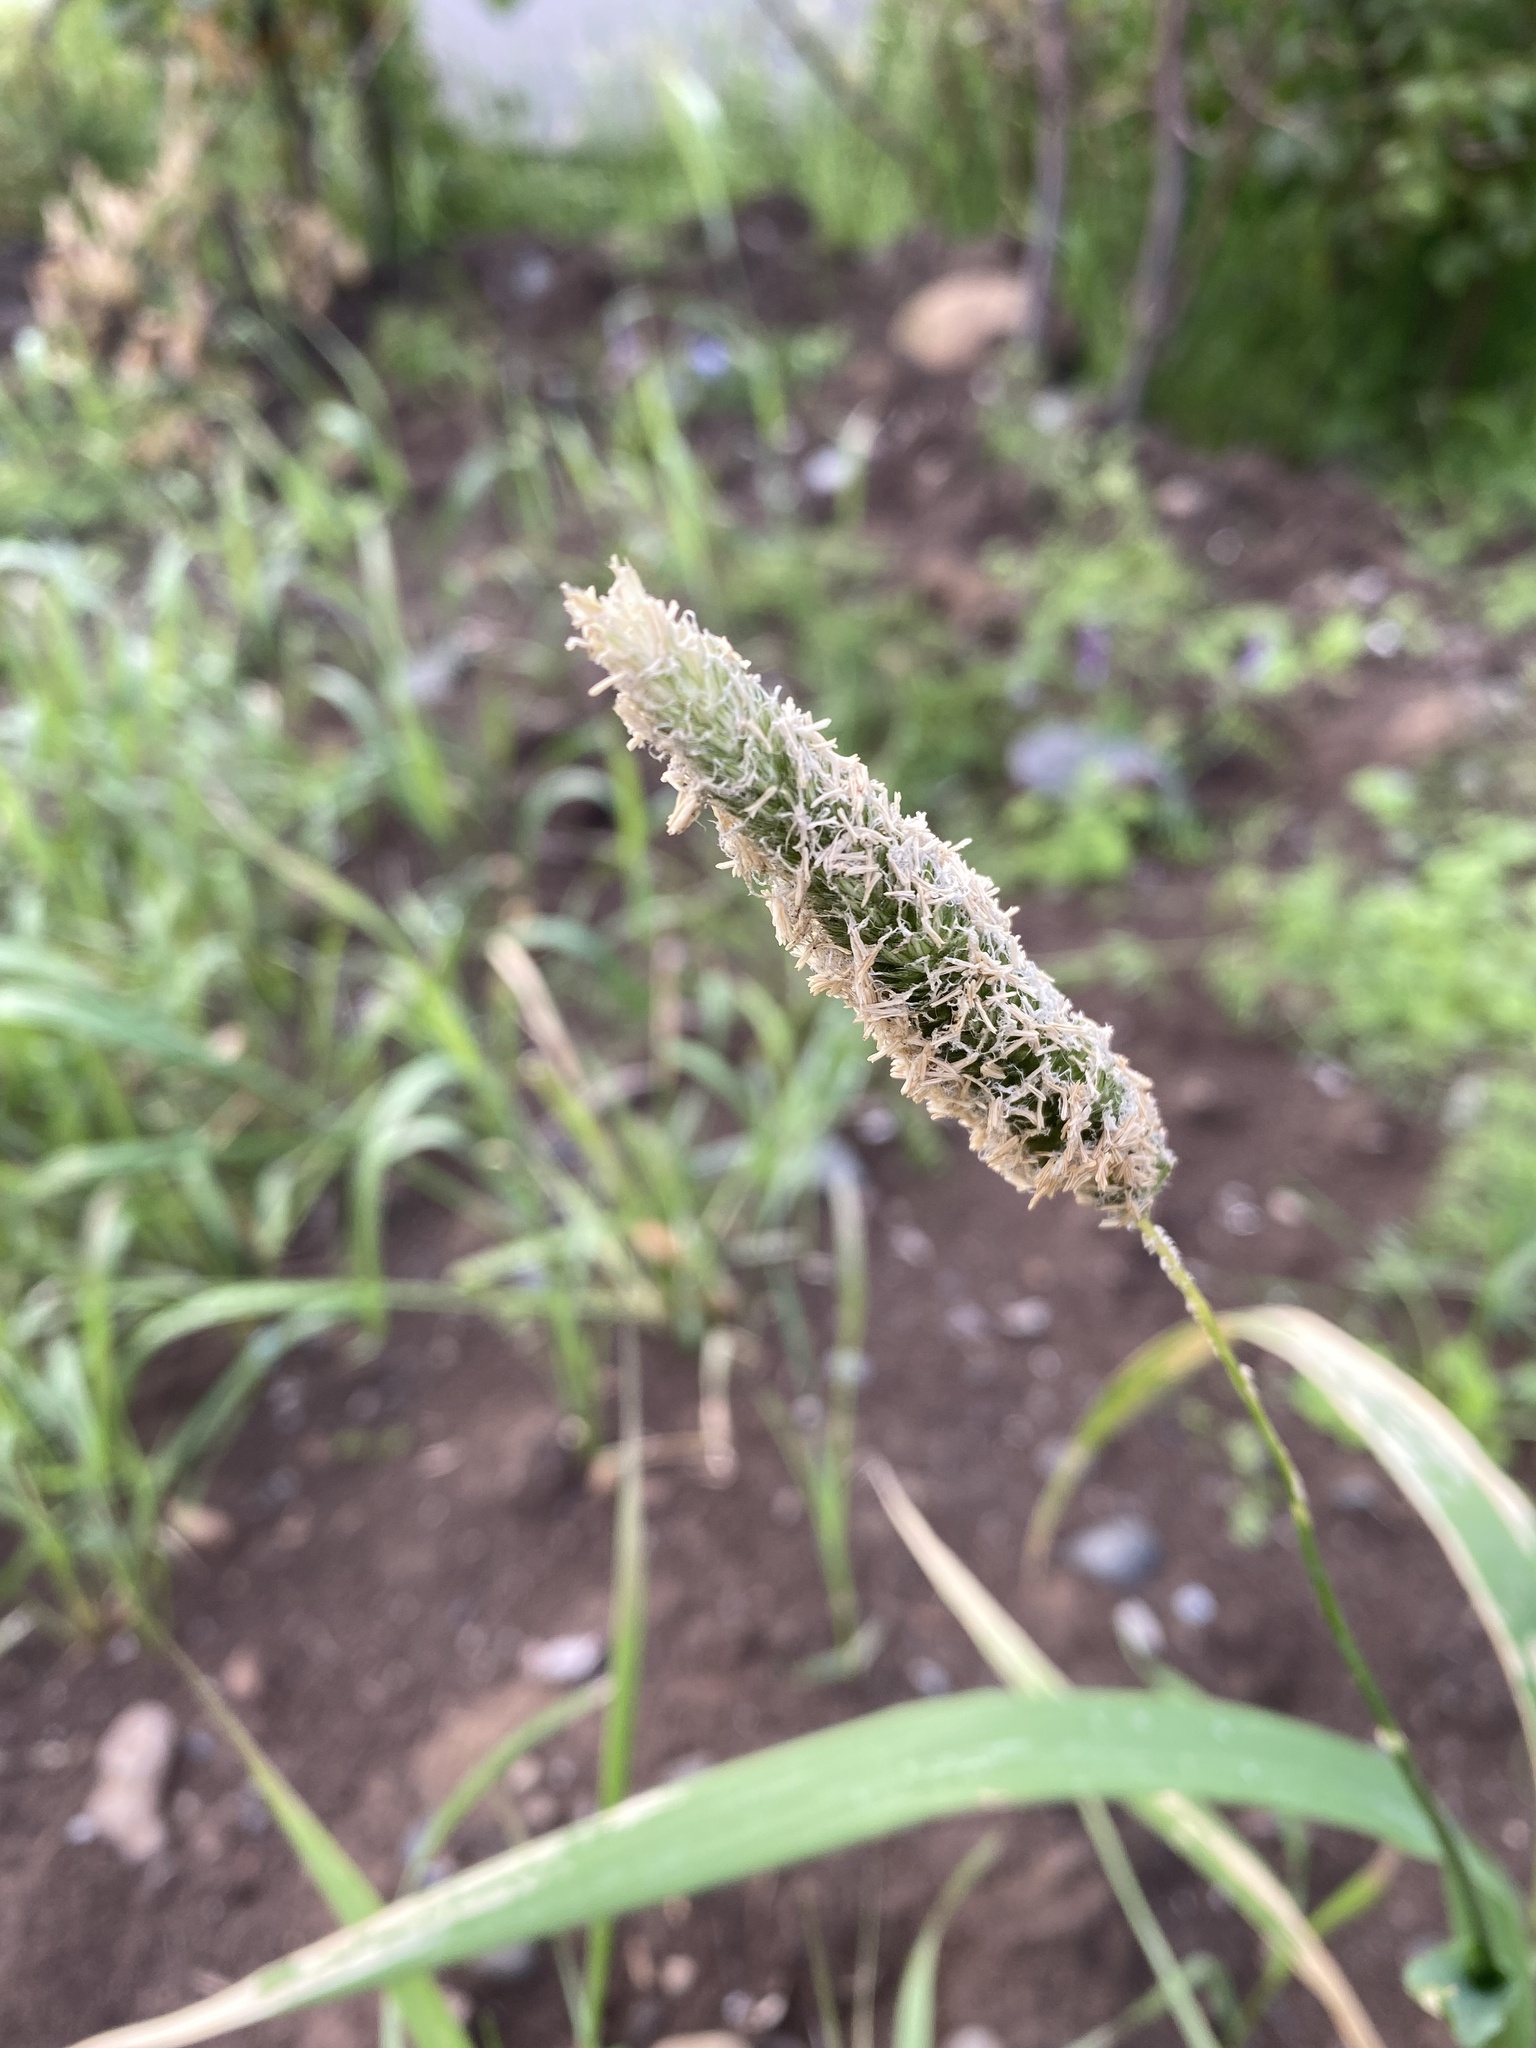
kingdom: Plantae
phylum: Tracheophyta
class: Liliopsida
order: Poales
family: Poaceae
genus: Alopecurus
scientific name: Alopecurus pratensis
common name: Meadow foxtail
